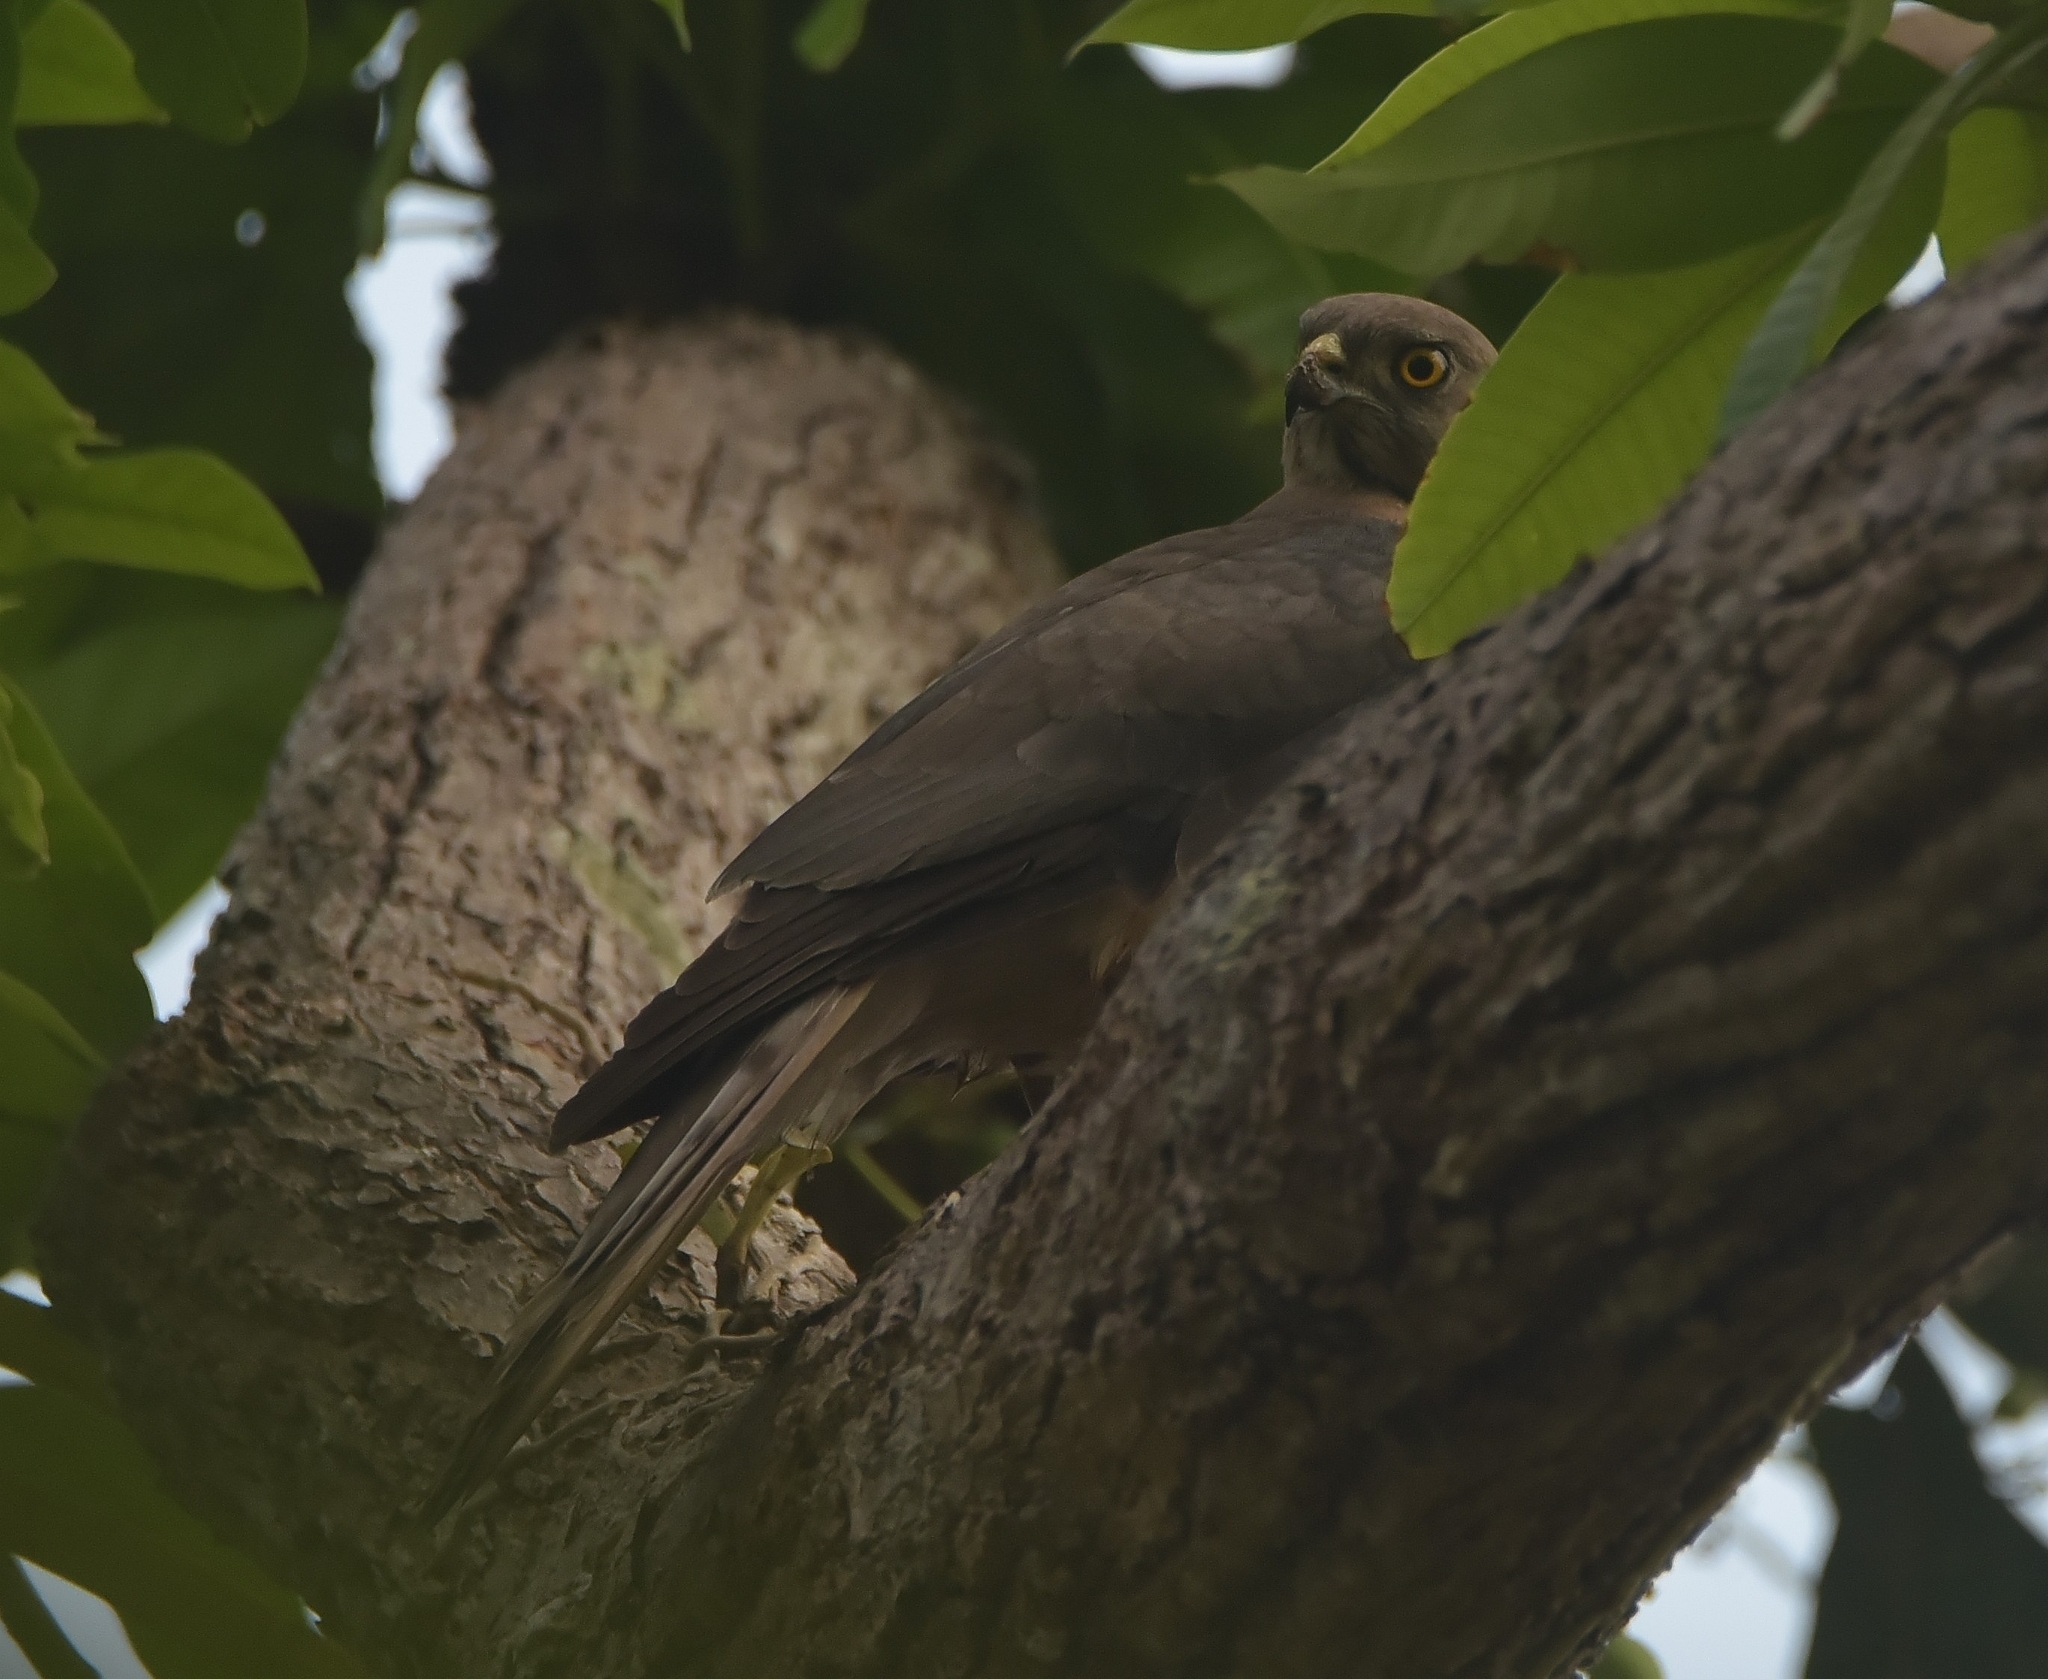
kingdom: Animalia
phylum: Chordata
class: Aves
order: Accipitriformes
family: Accipitridae
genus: Accipiter
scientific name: Accipiter badius
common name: Shikra
